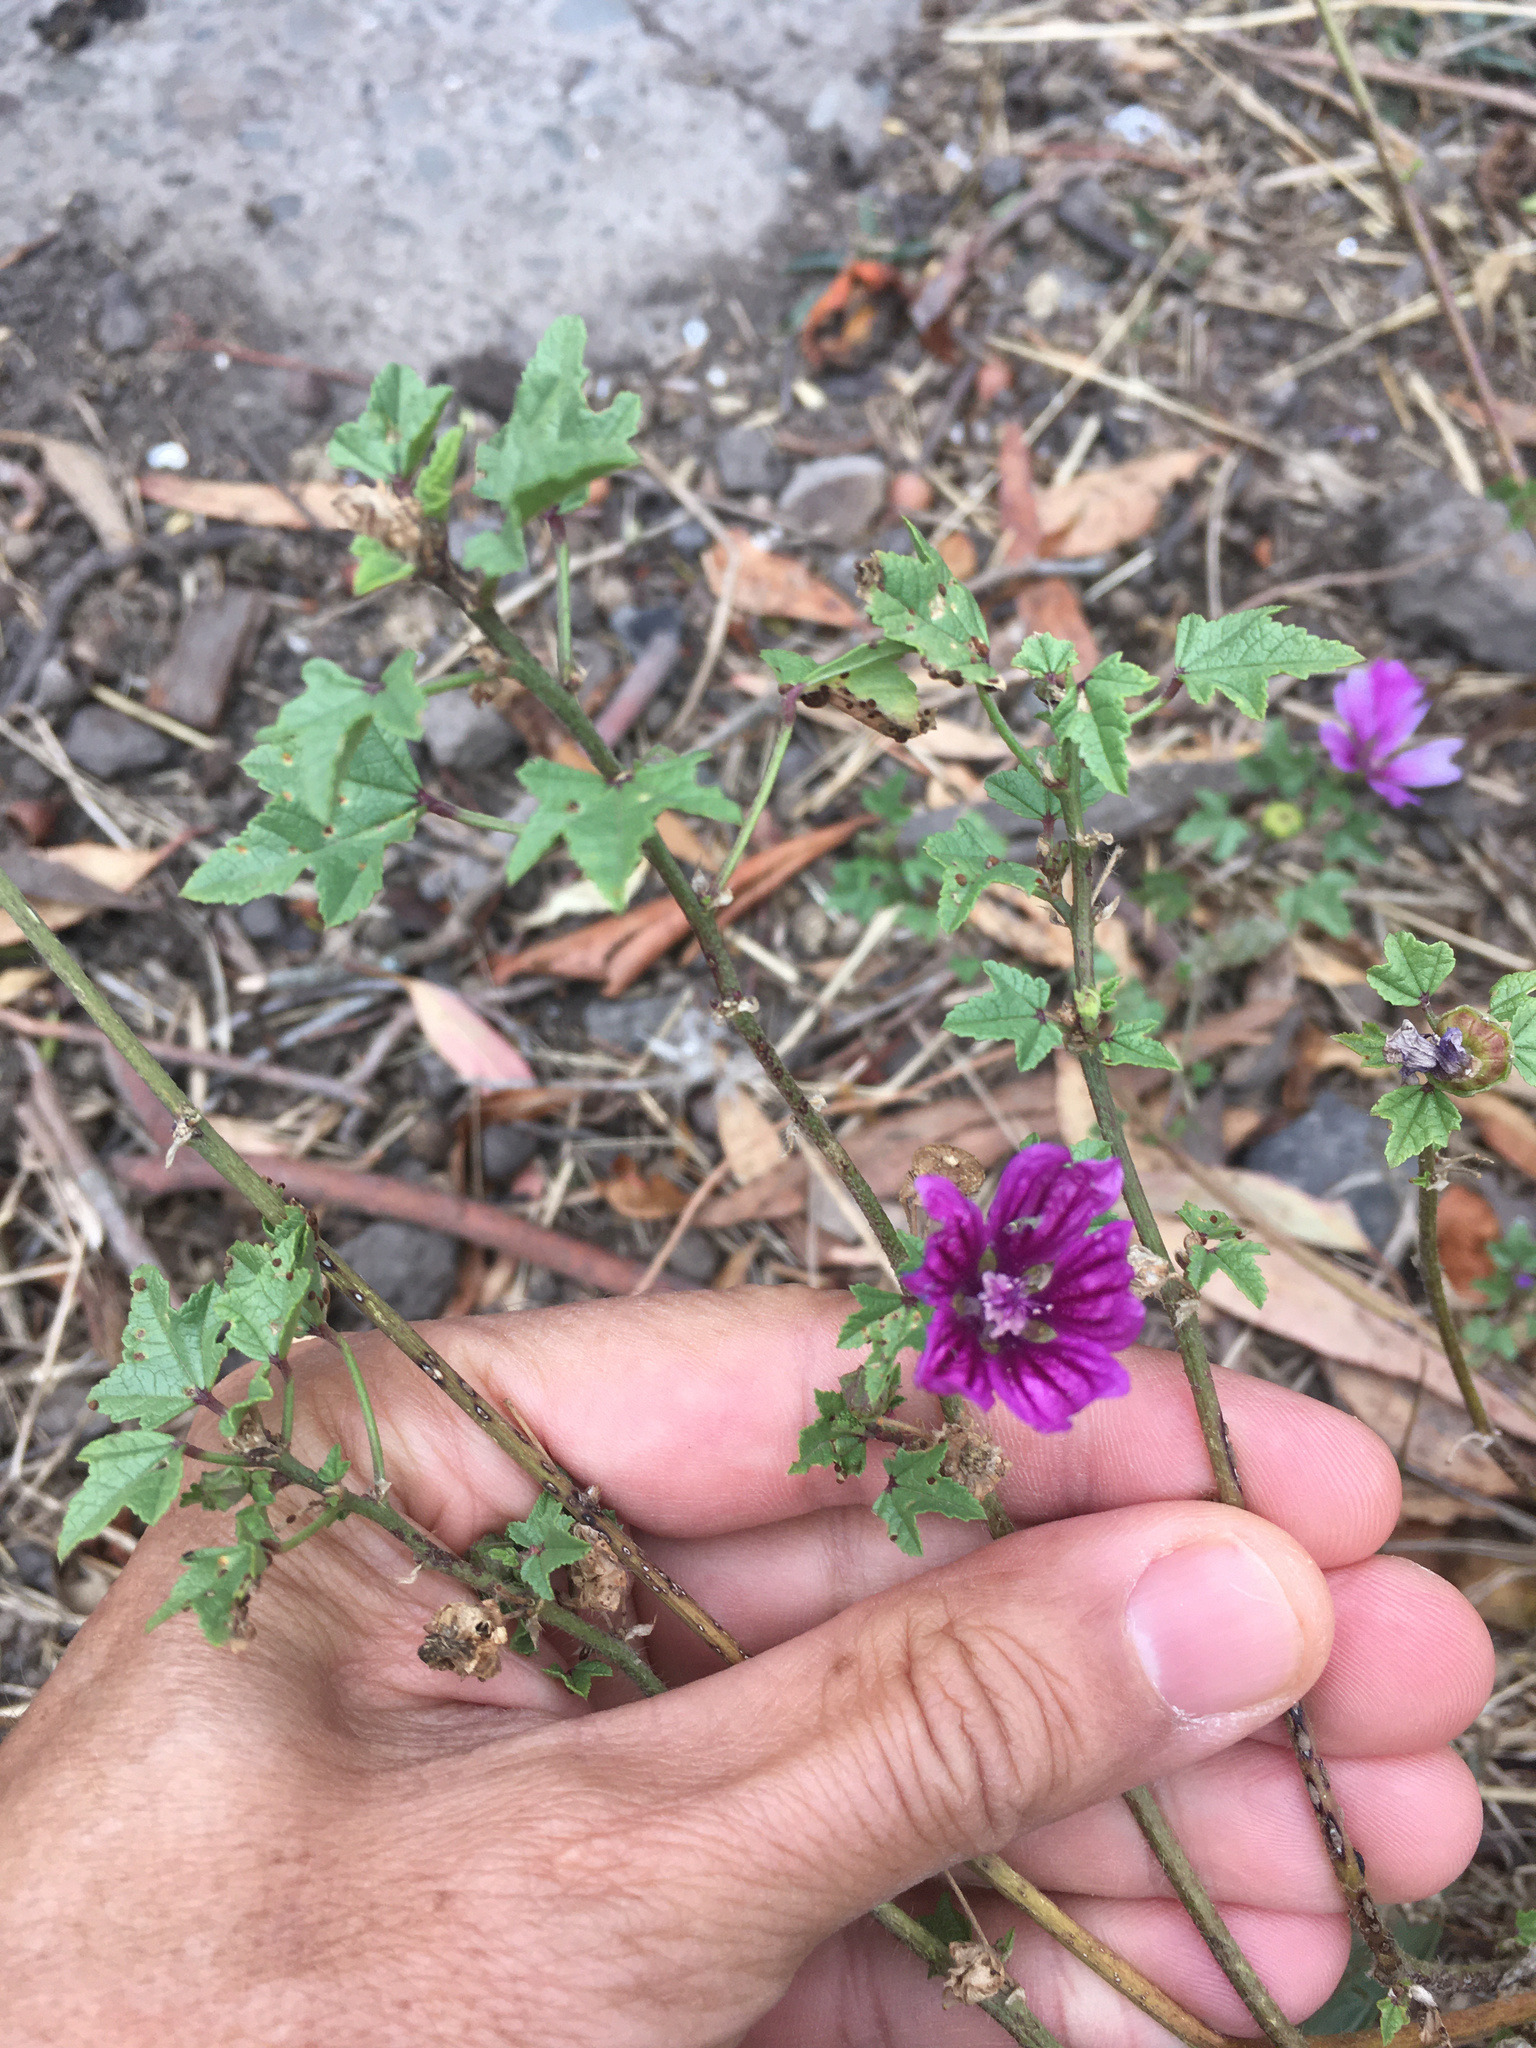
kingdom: Plantae
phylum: Tracheophyta
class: Magnoliopsida
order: Malvales
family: Malvaceae
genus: Malva
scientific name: Malva sylvestris
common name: Common mallow
